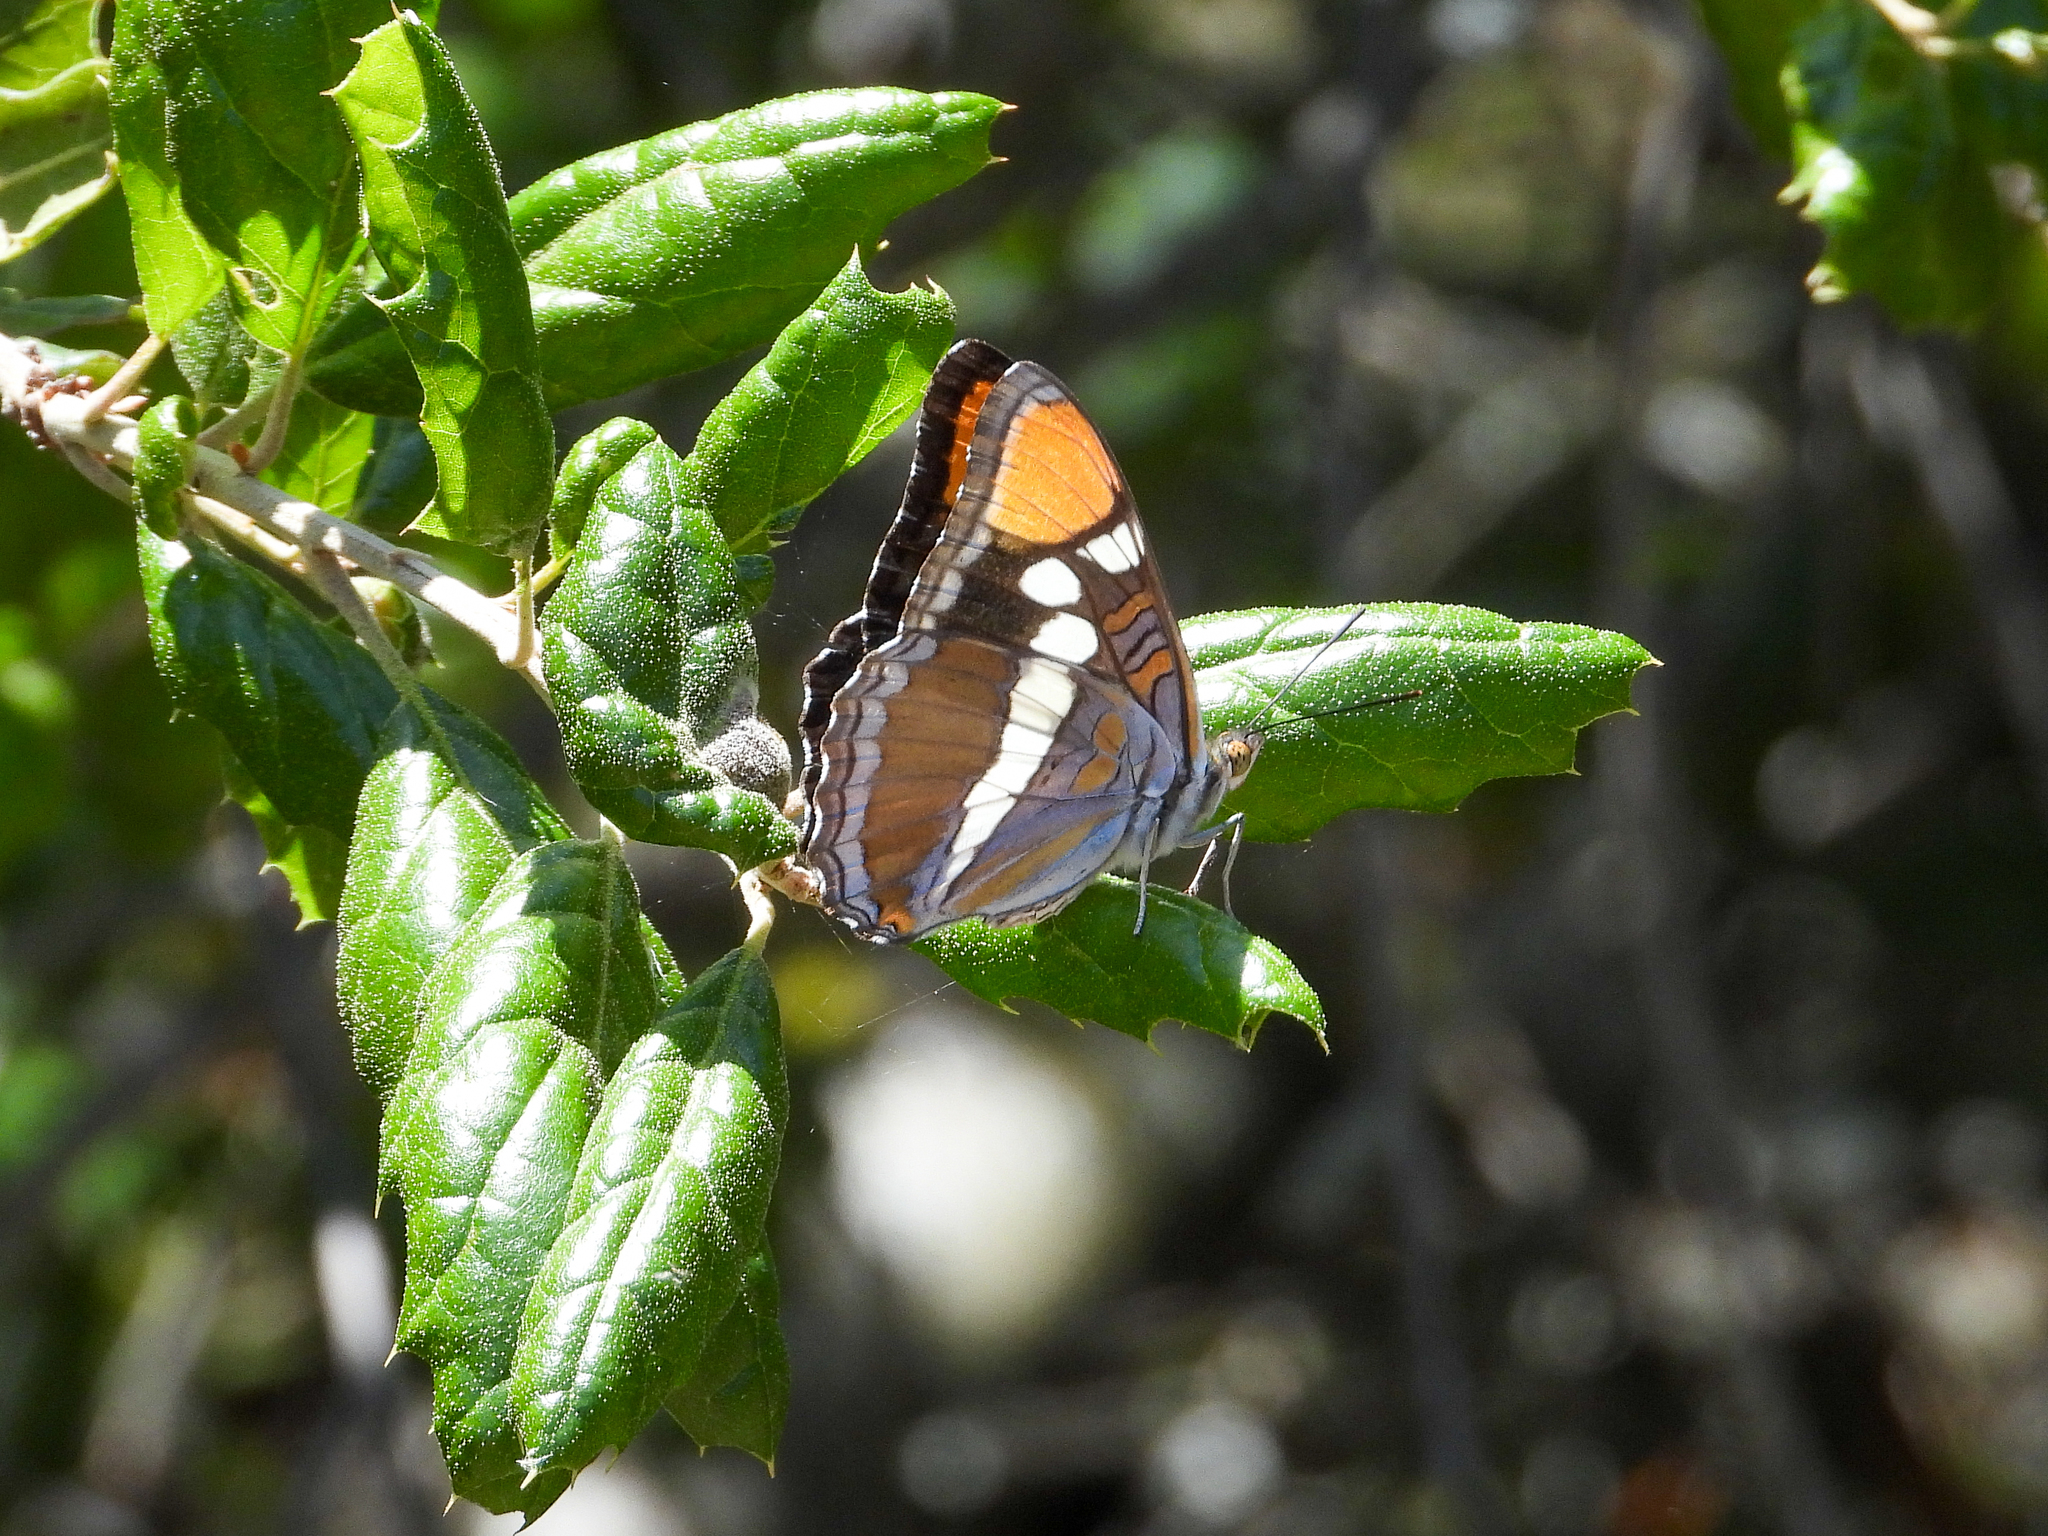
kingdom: Animalia
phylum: Arthropoda
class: Insecta
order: Lepidoptera
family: Nymphalidae
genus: Limenitis
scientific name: Limenitis bredowii
